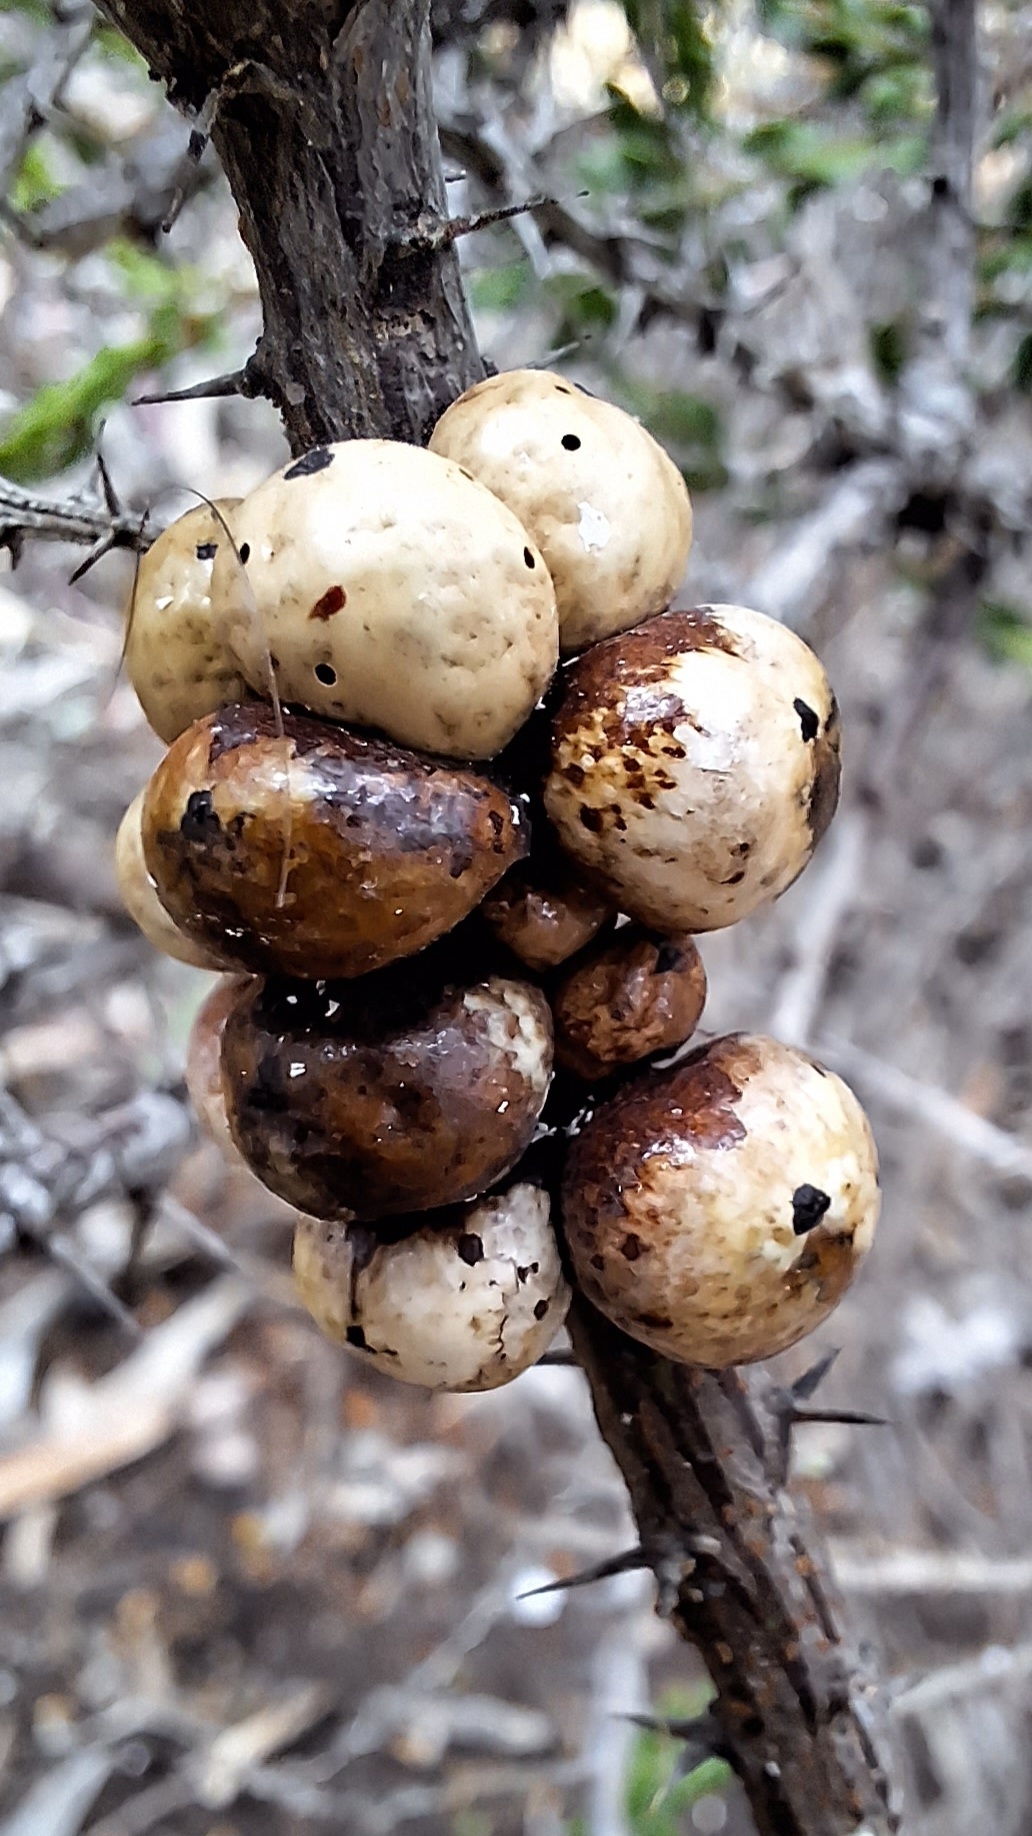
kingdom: Animalia
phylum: Arthropoda
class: Insecta
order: Hemiptera
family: Coccidae
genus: Cryptes
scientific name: Cryptes baccatus
